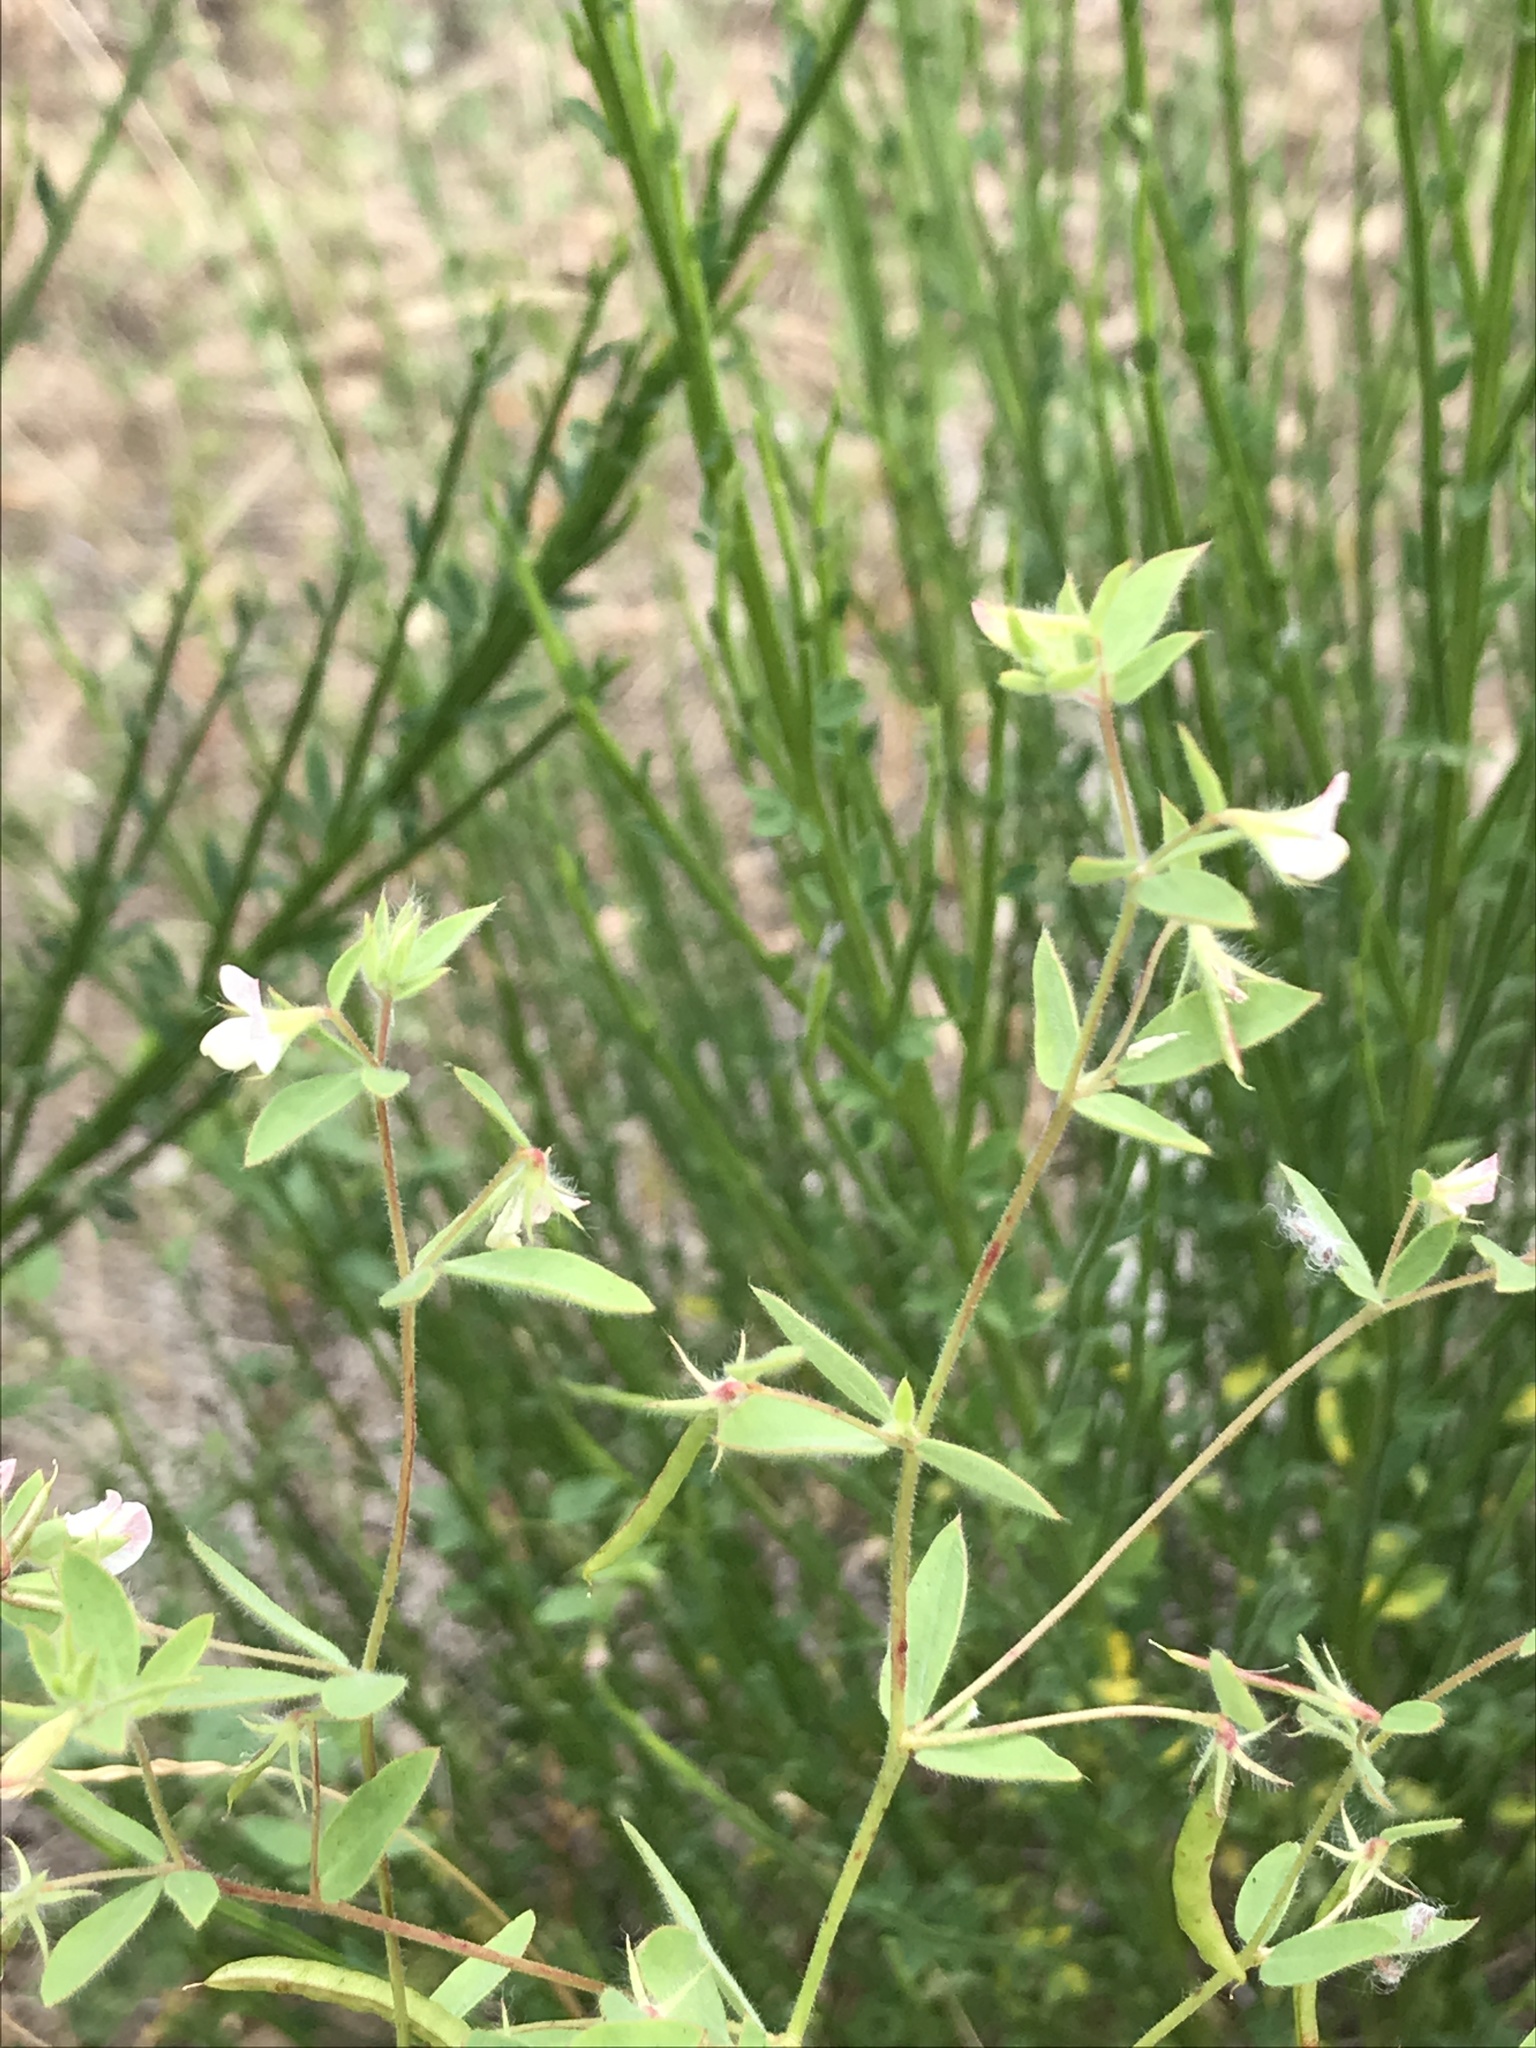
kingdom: Plantae
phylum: Tracheophyta
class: Magnoliopsida
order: Fabales
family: Fabaceae
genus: Acmispon
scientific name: Acmispon americanus
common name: American bird's-foot trefoil
